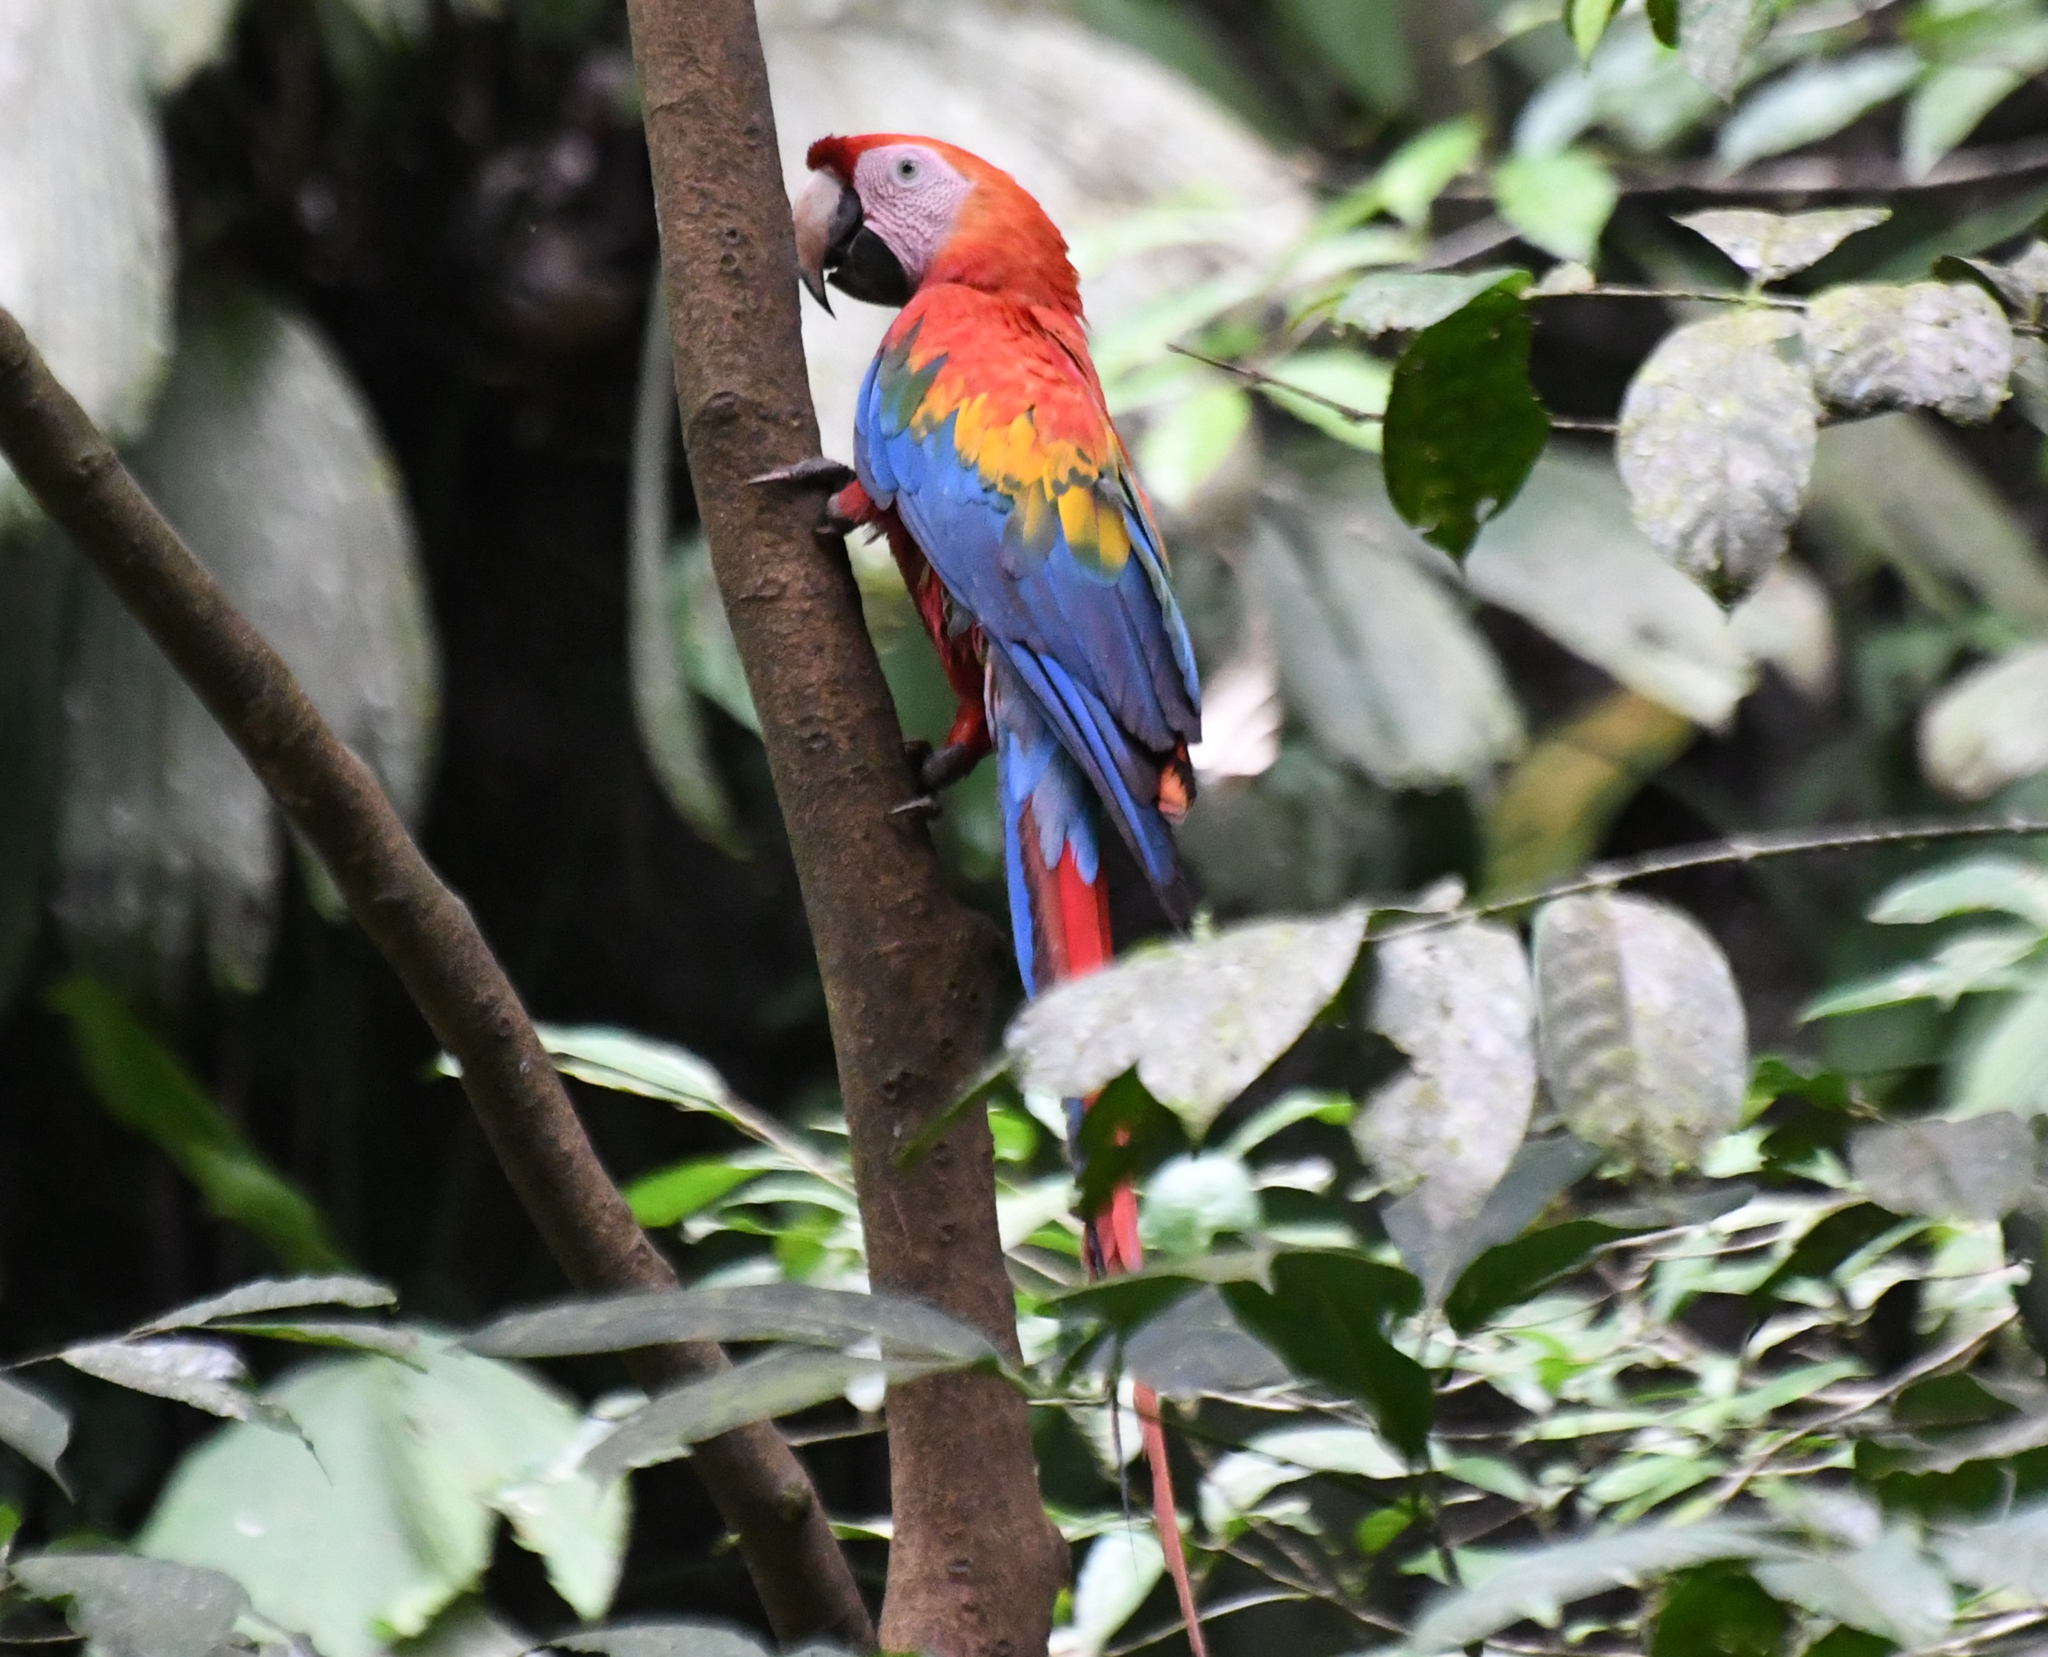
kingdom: Animalia
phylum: Chordata
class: Aves
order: Psittaciformes
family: Psittacidae
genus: Ara
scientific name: Ara macao
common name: Scarlet macaw
